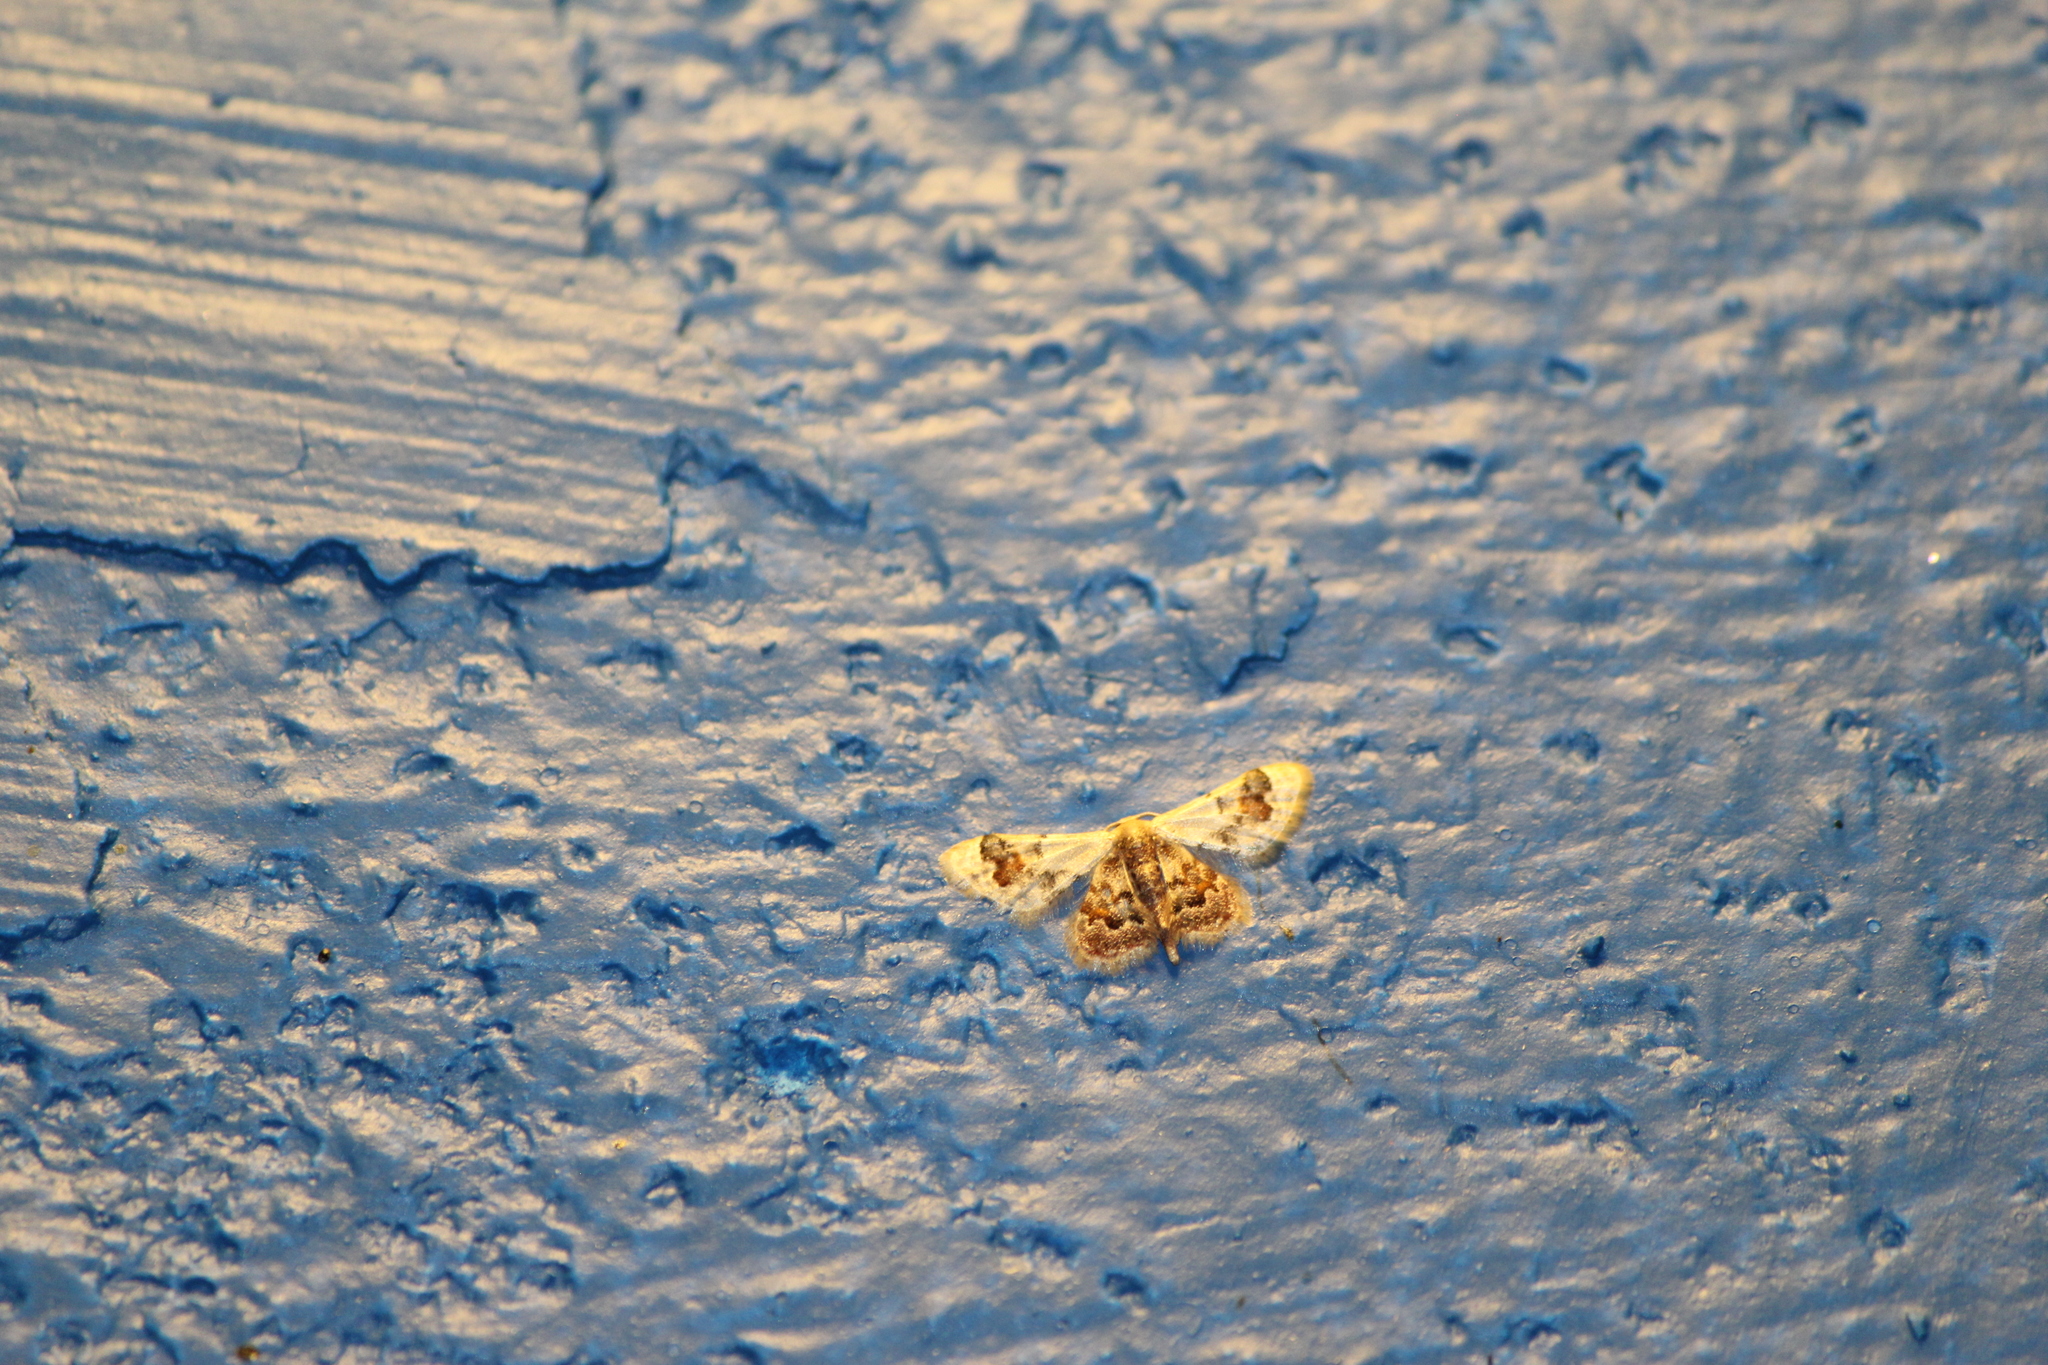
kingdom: Animalia
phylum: Arthropoda
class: Insecta
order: Lepidoptera
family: Geometridae
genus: Idaea
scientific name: Idaea asceta
